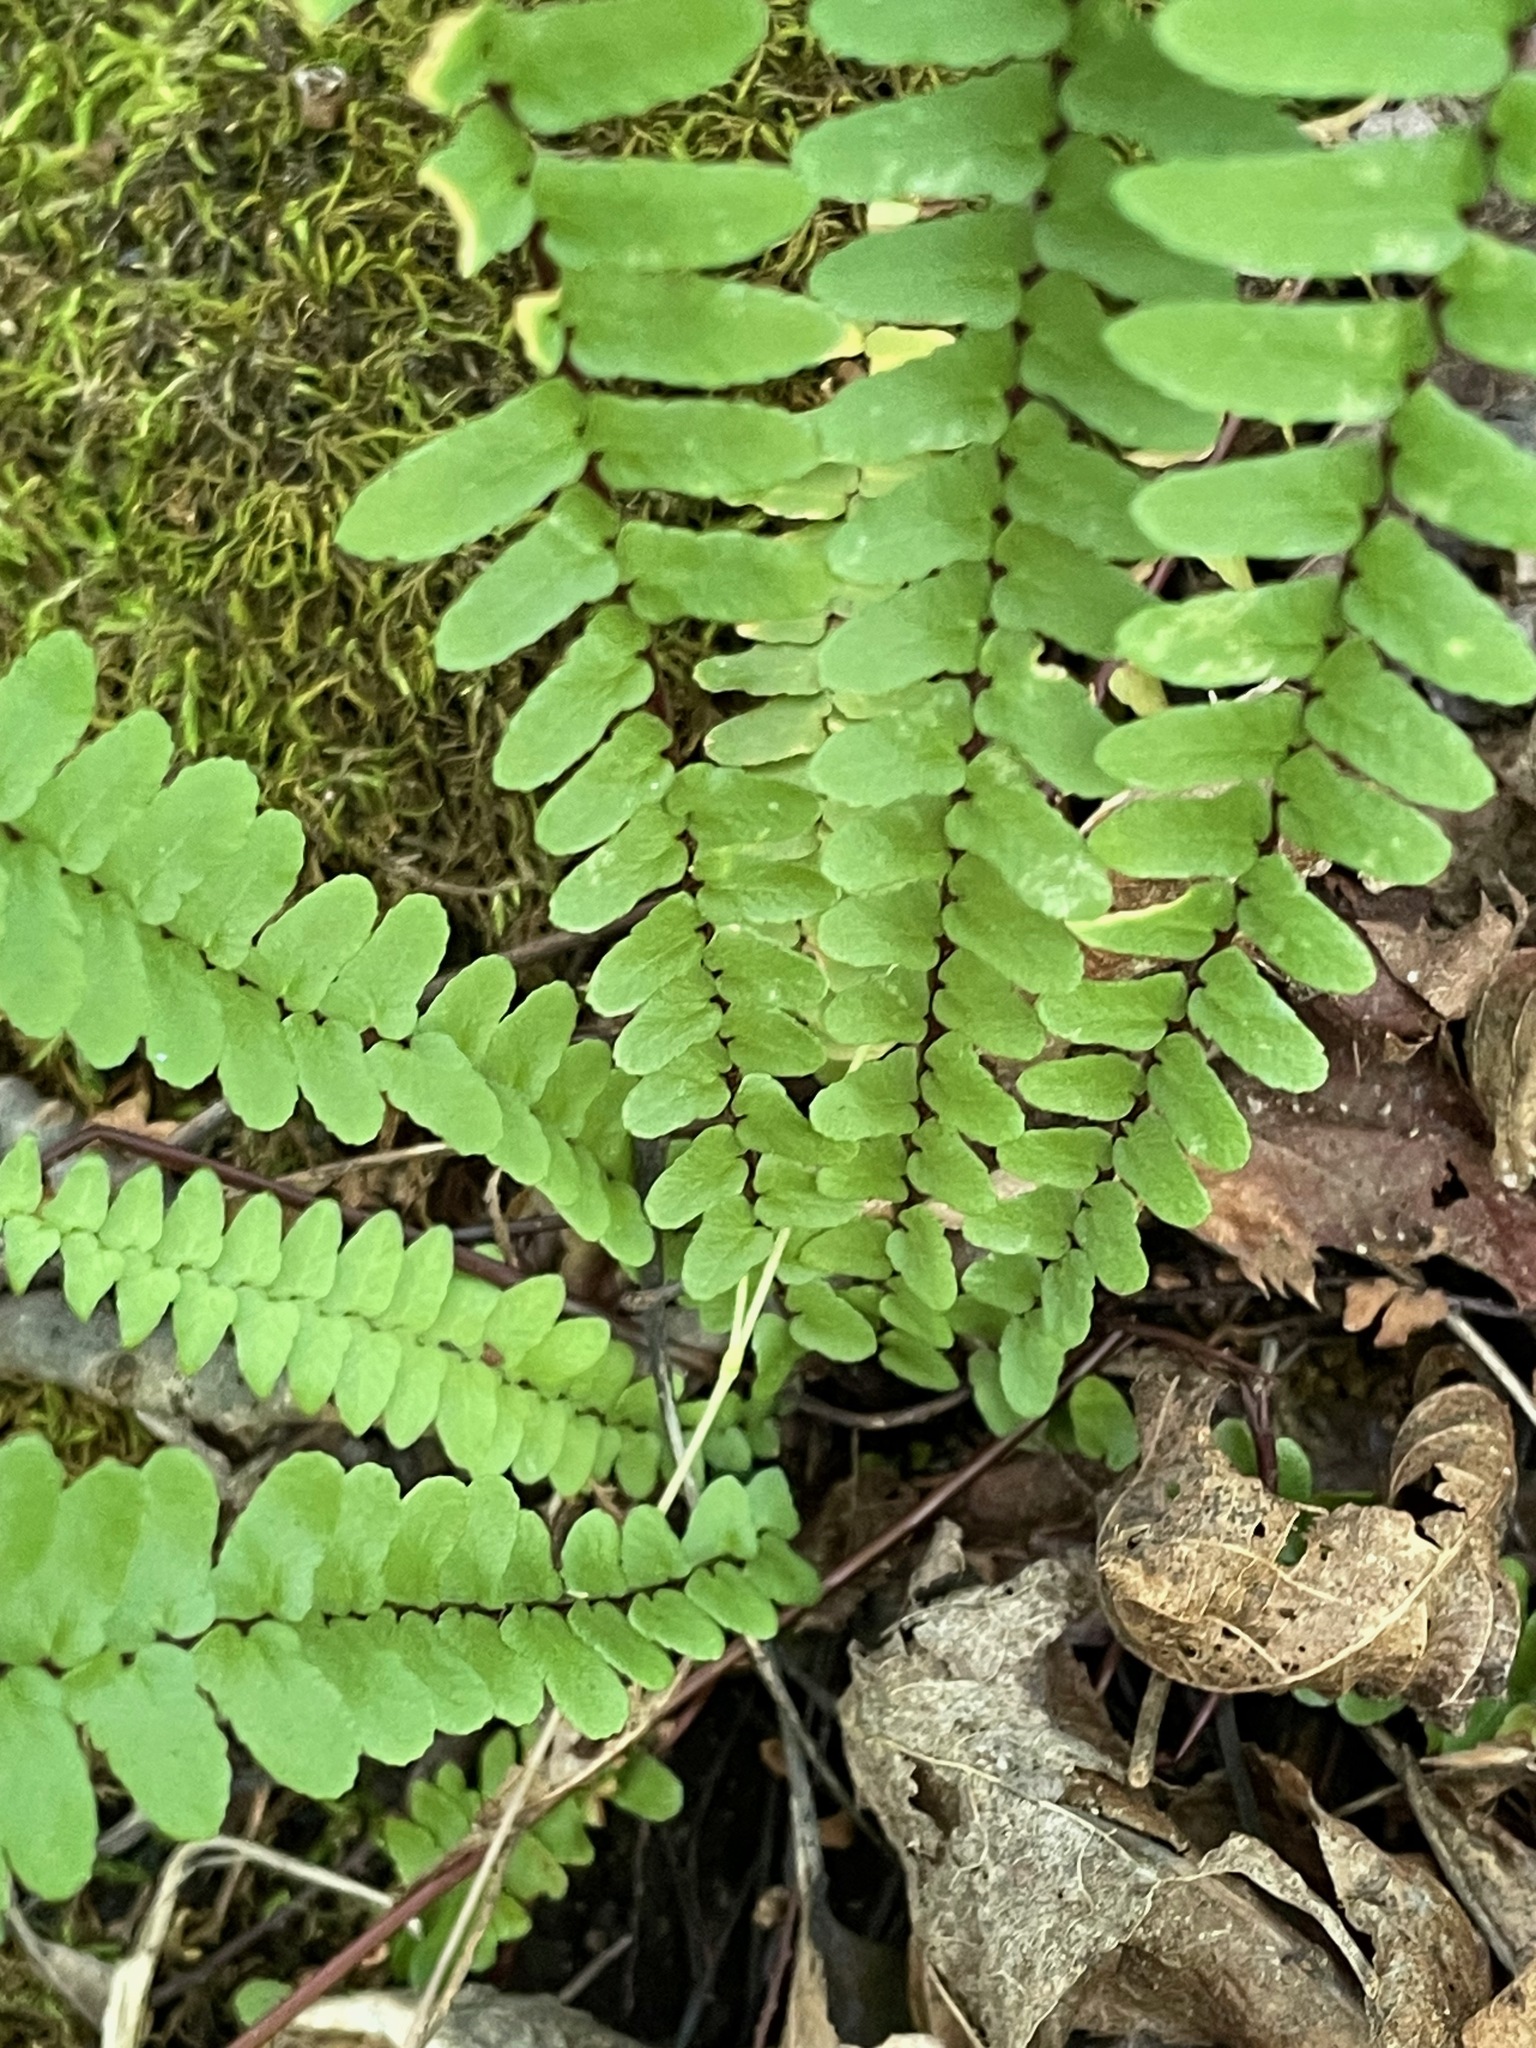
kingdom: Plantae
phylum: Tracheophyta
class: Polypodiopsida
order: Polypodiales
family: Aspleniaceae
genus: Asplenium
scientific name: Asplenium platyneuron
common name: Ebony spleenwort
